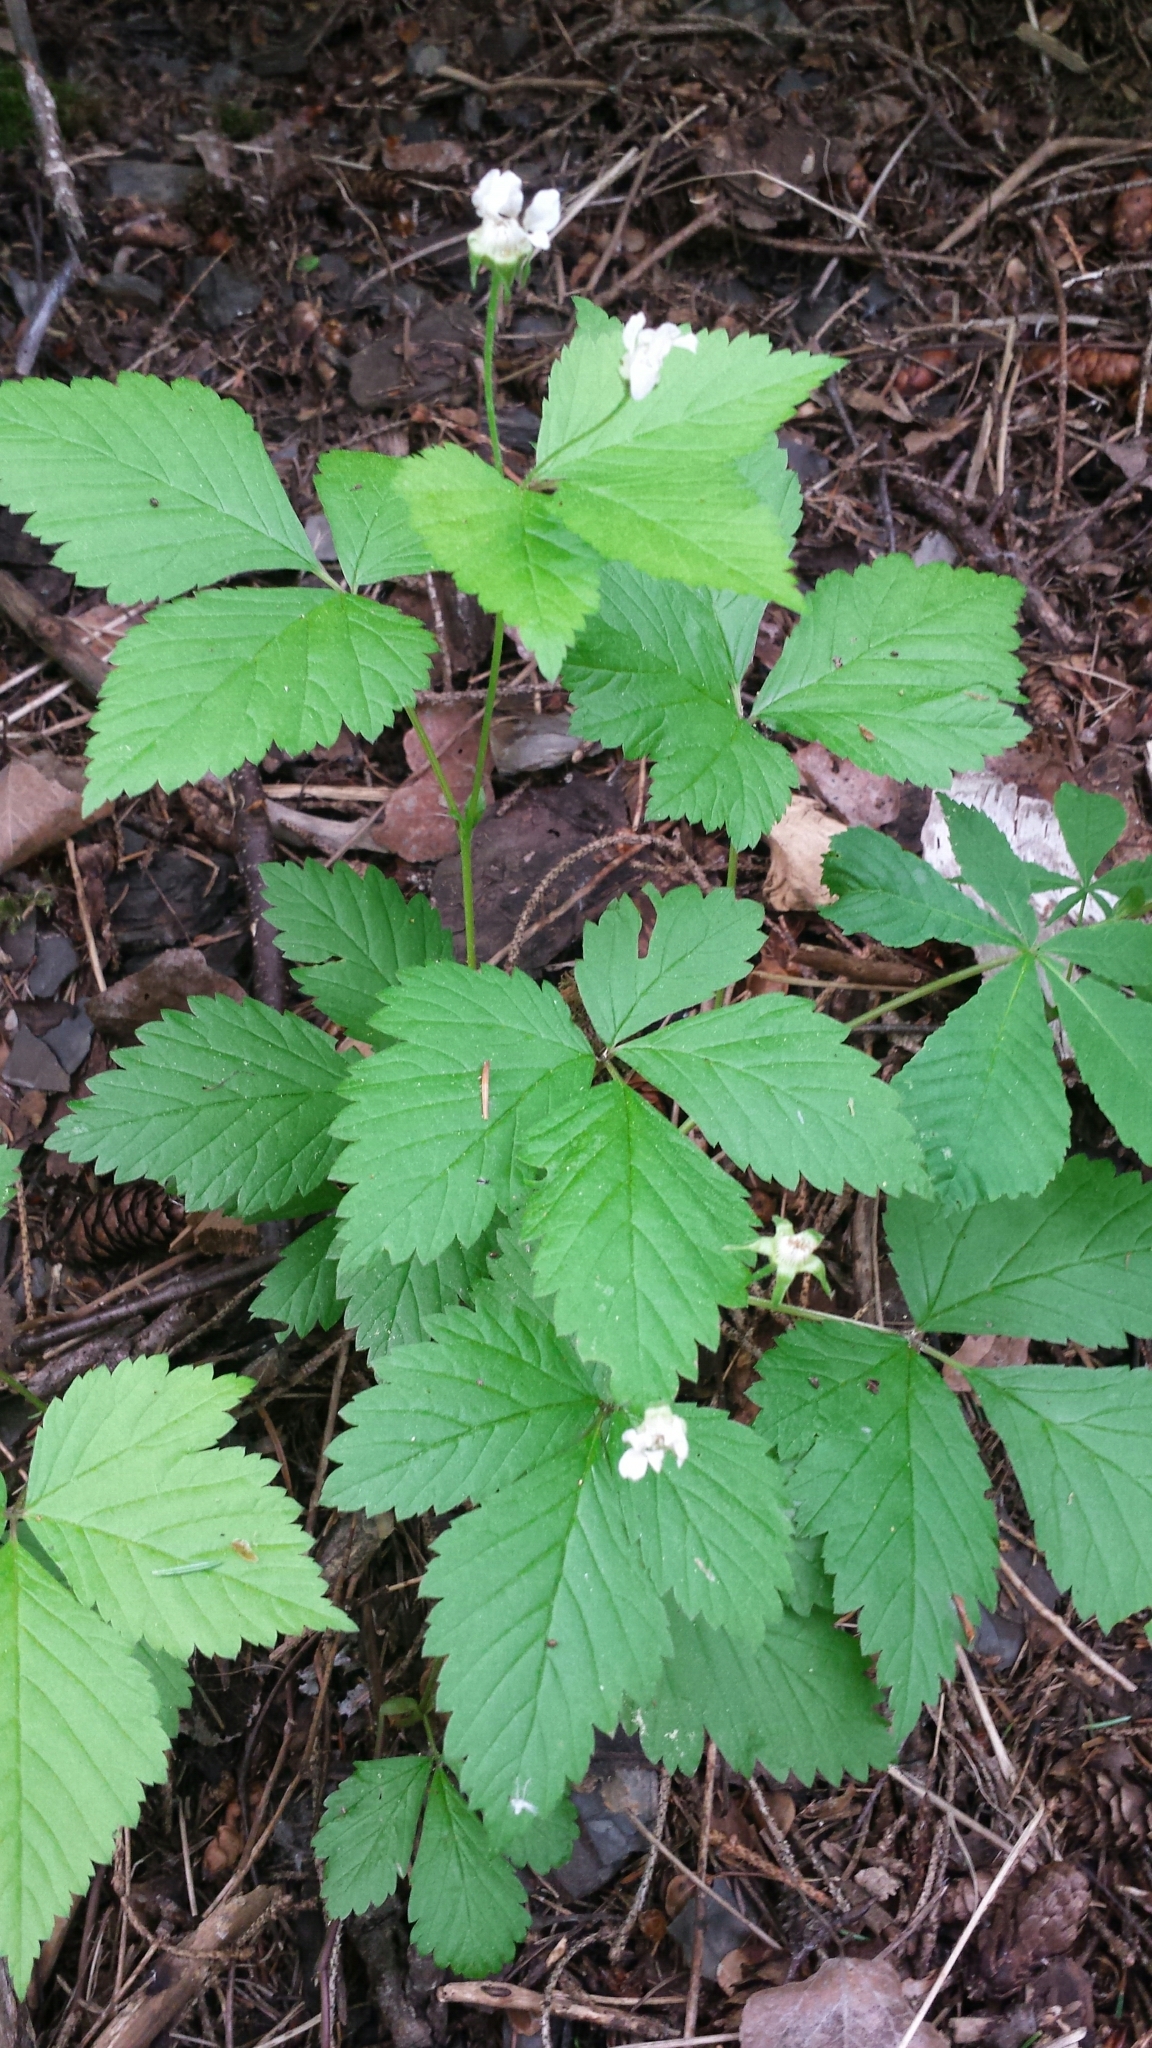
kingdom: Plantae
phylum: Tracheophyta
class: Magnoliopsida
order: Rosales
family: Rosaceae
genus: Rubus
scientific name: Rubus pubescens
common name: Dwarf raspberry
